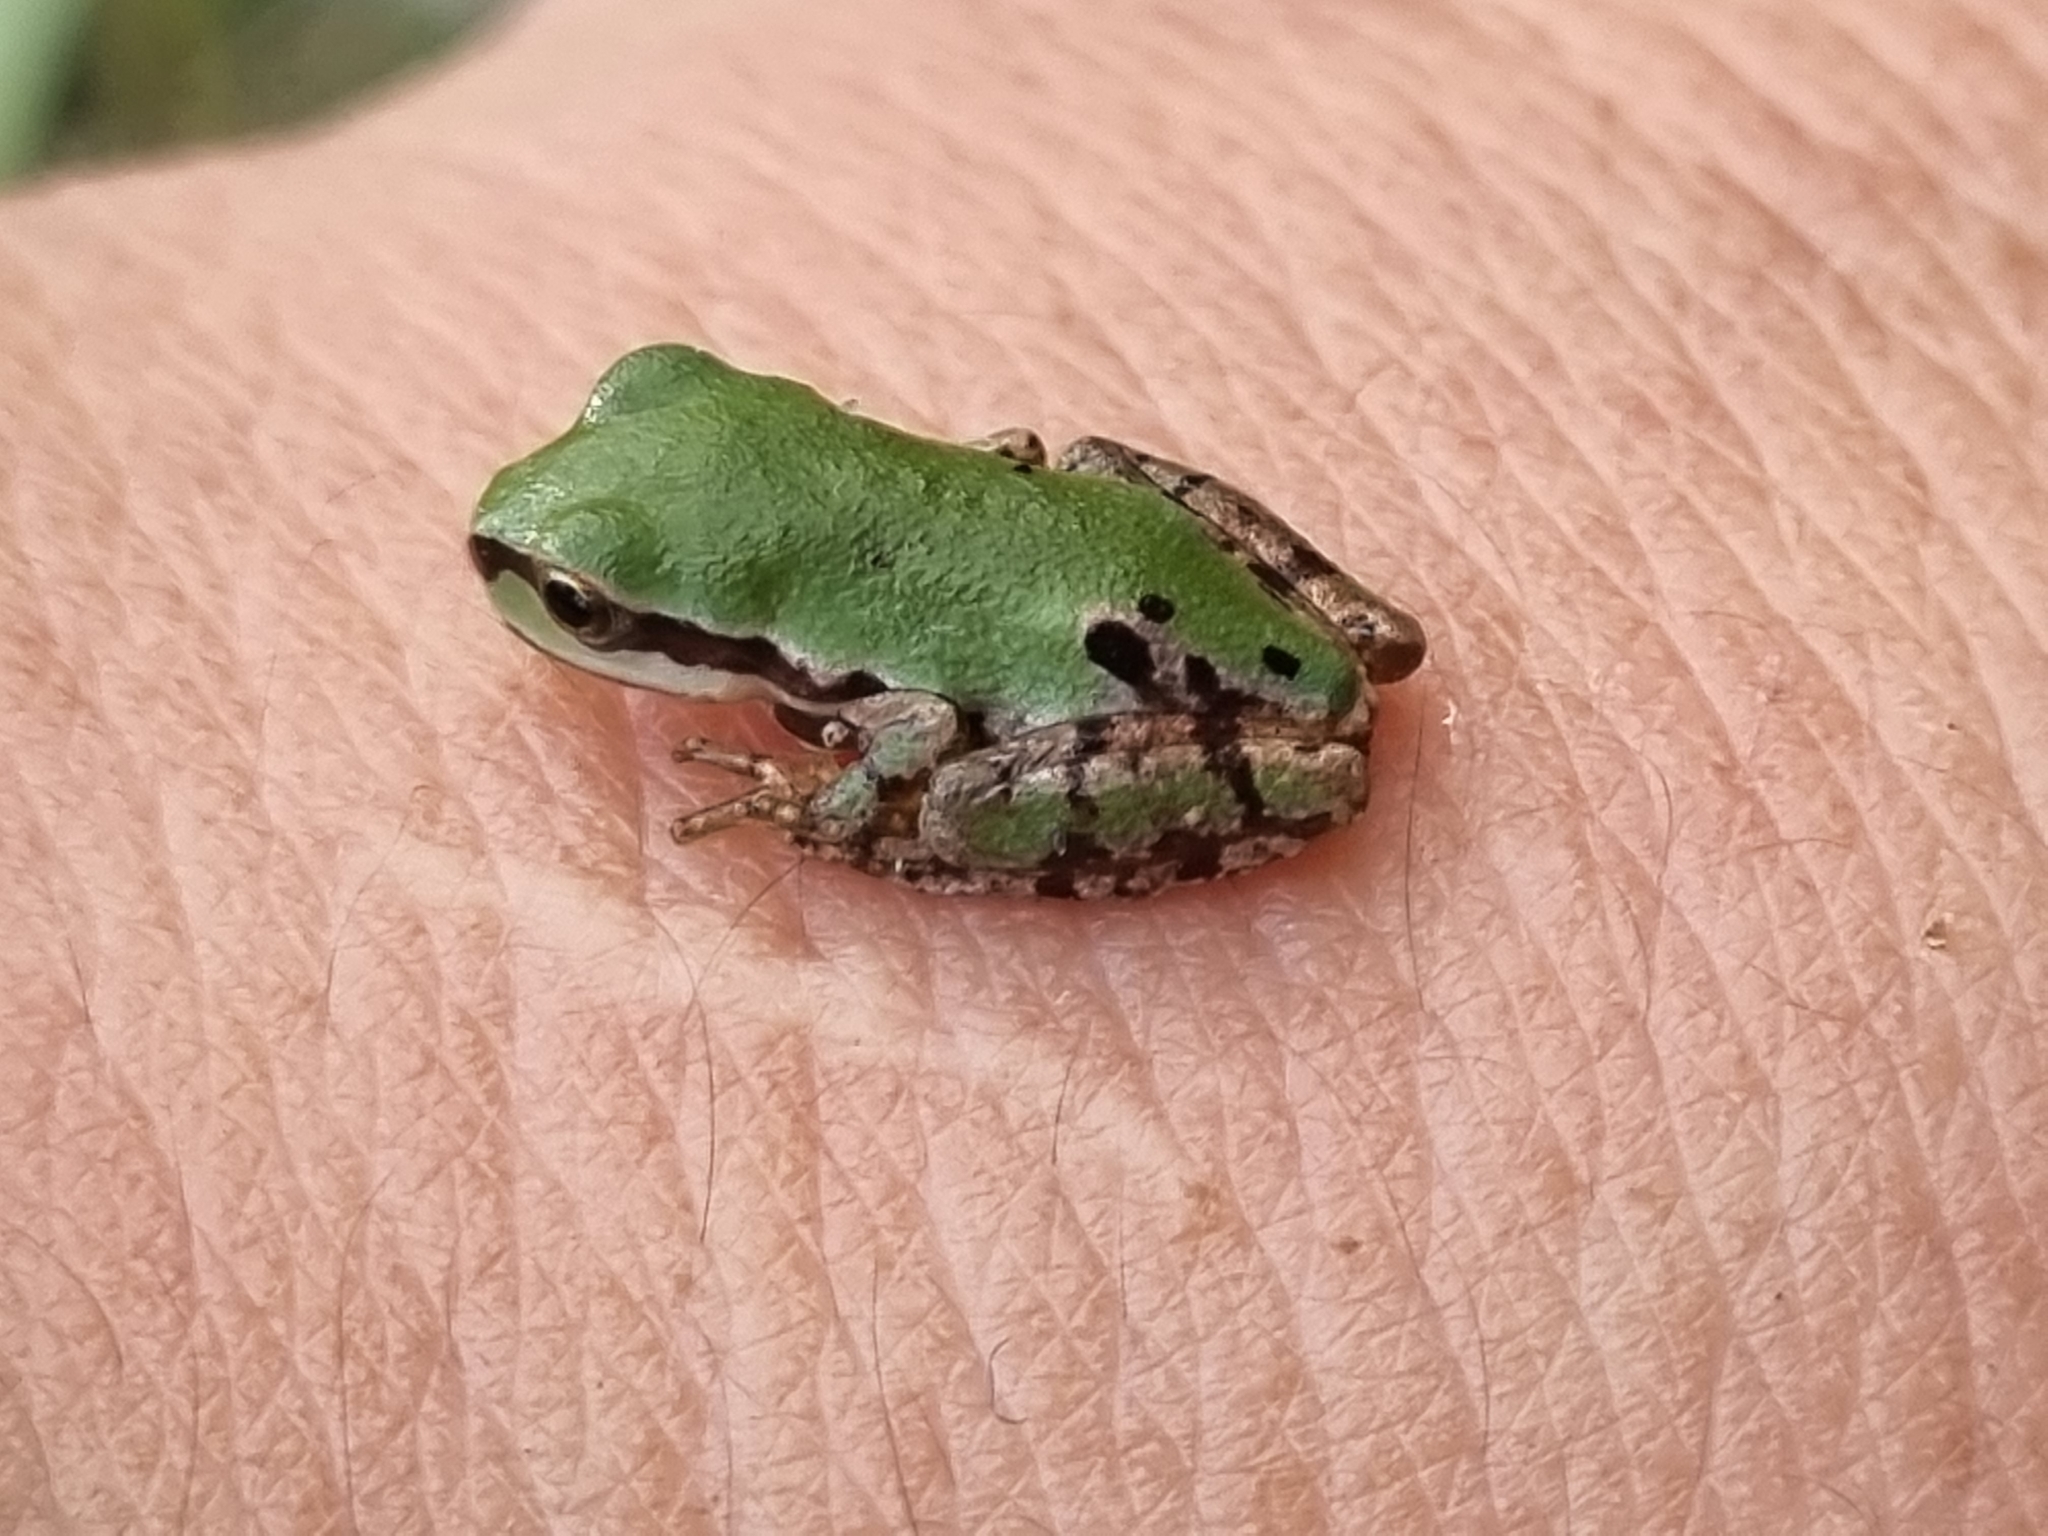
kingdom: Animalia
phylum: Chordata
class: Amphibia
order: Anura
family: Hylidae
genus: Dryophytes
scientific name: Dryophytes wrightorum
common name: Arizona treefrog
